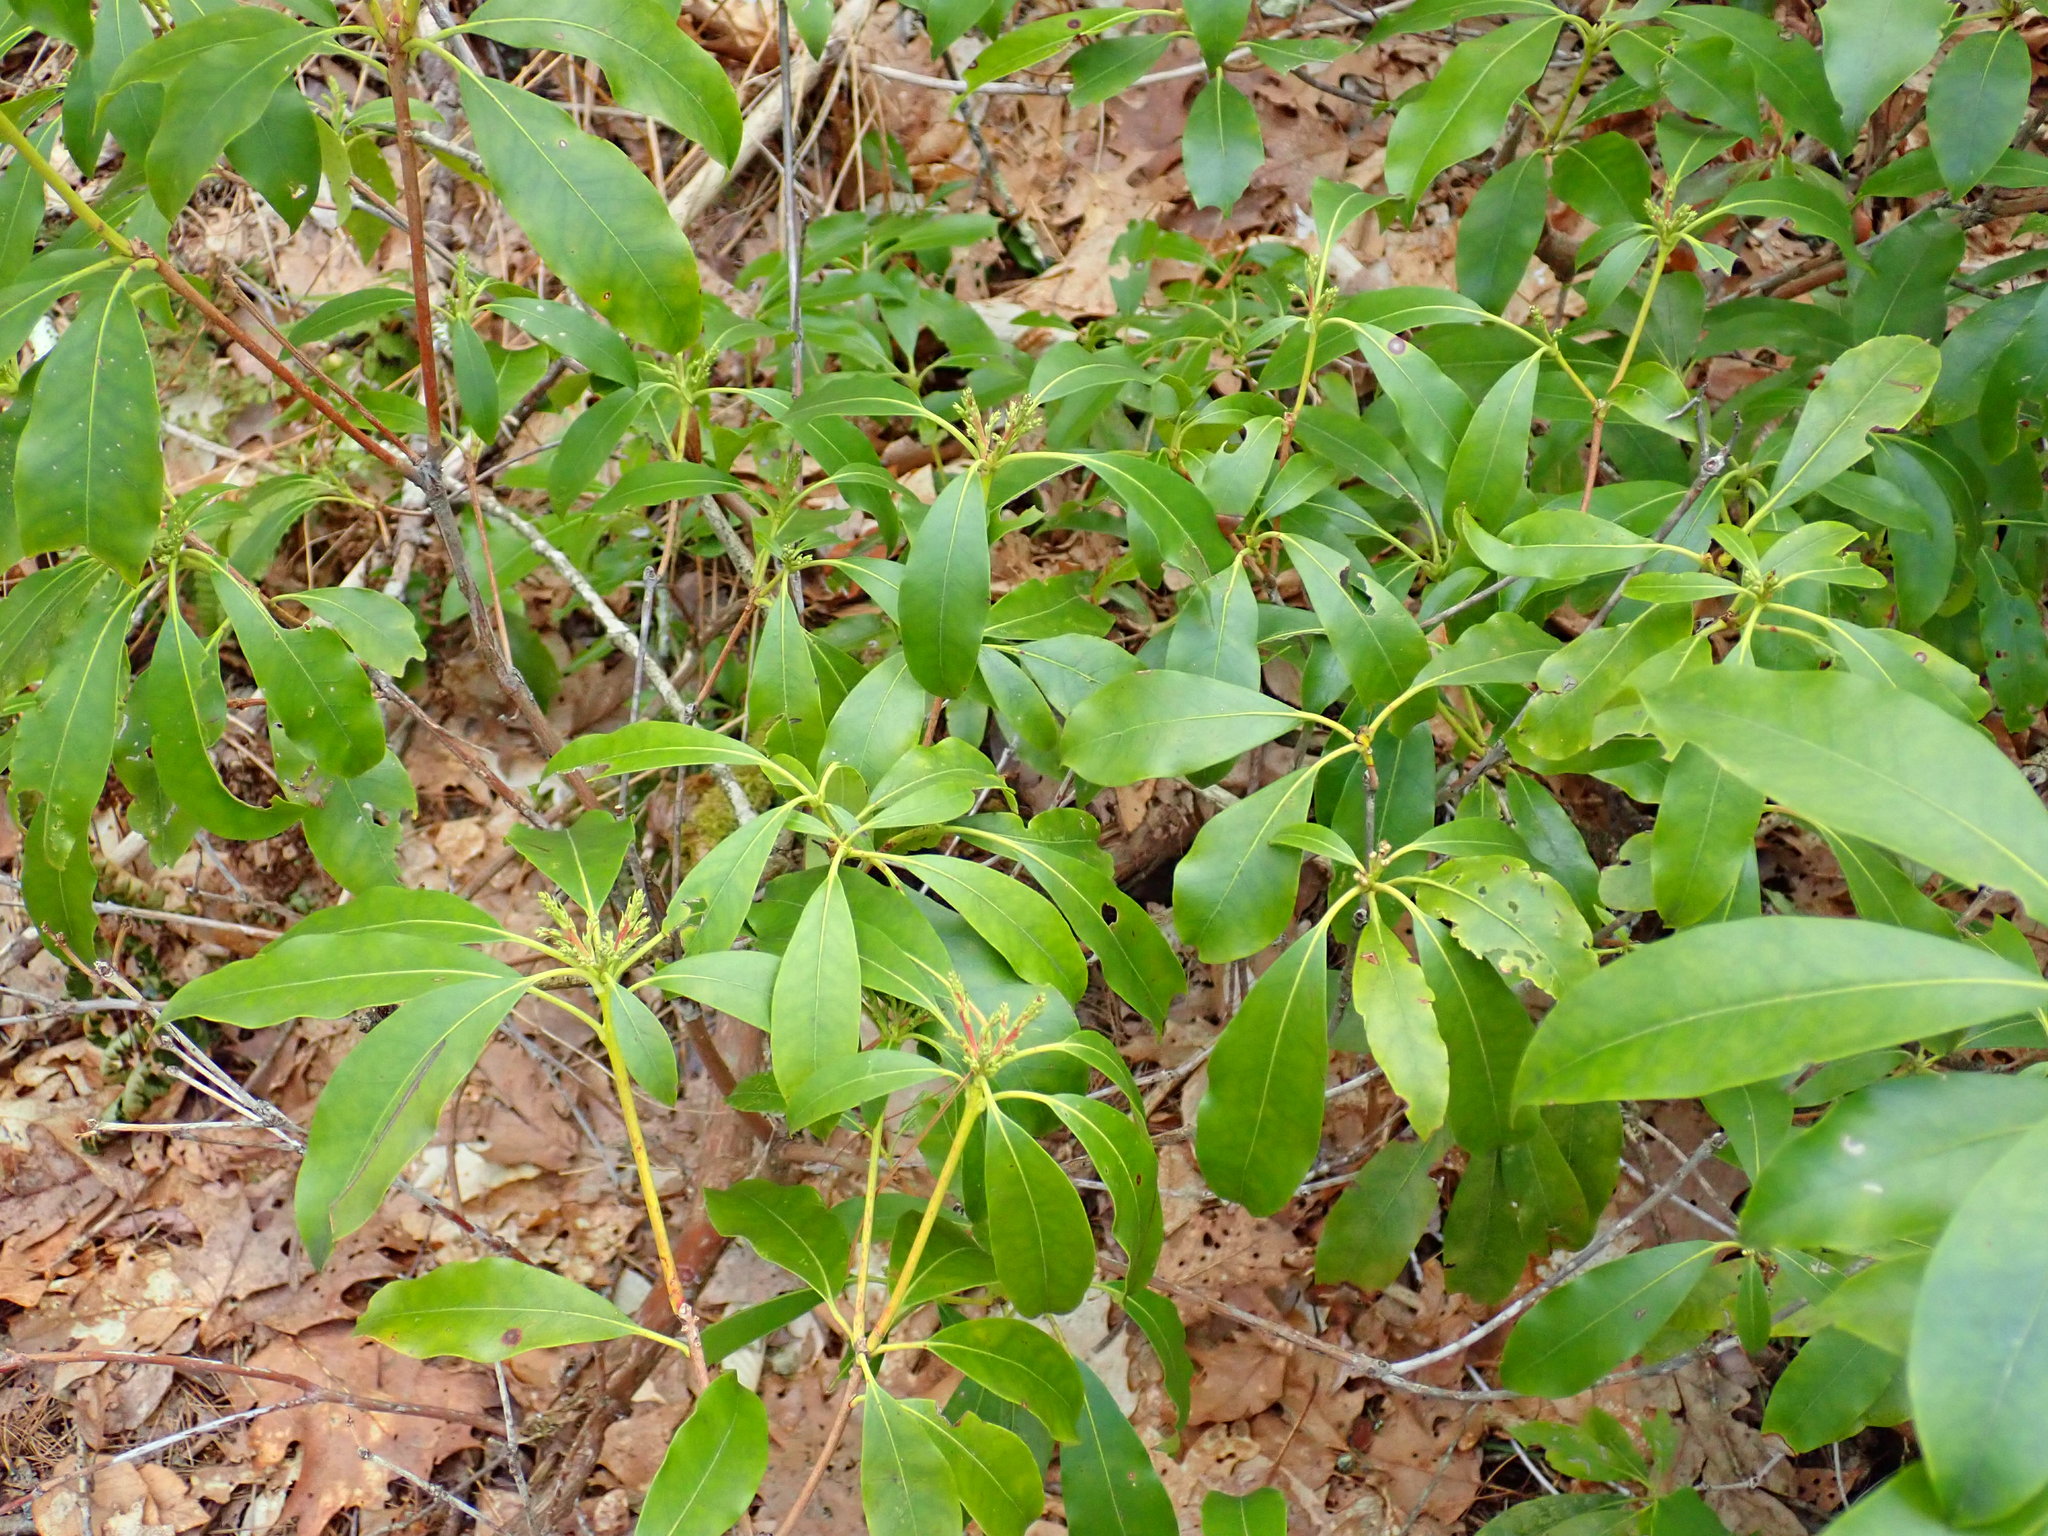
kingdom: Plantae
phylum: Tracheophyta
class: Magnoliopsida
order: Ericales
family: Ericaceae
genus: Kalmia
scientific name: Kalmia latifolia
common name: Mountain-laurel
